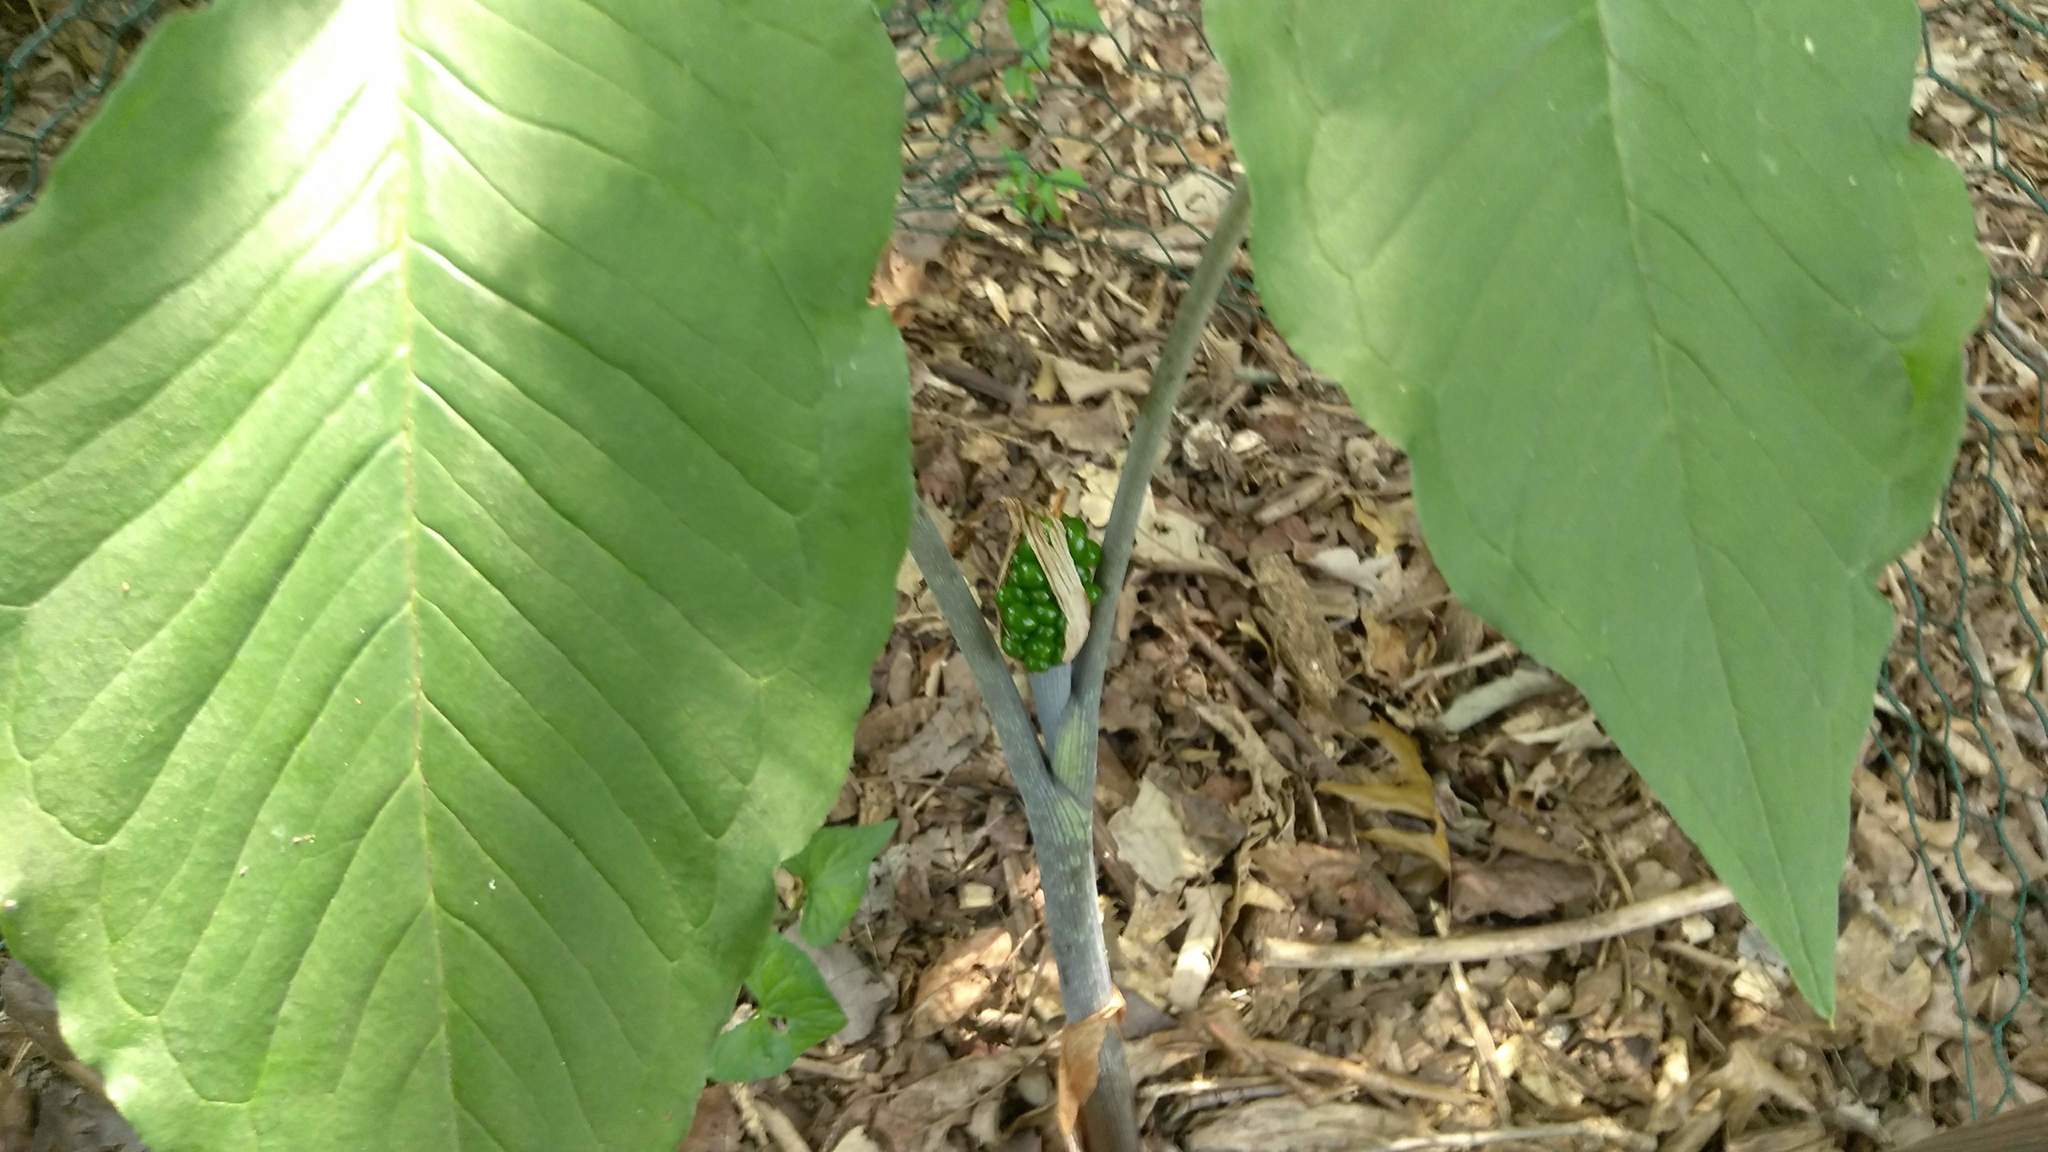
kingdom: Plantae
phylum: Tracheophyta
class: Liliopsida
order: Alismatales
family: Araceae
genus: Arisaema
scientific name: Arisaema triphyllum
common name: Jack-in-the-pulpit
